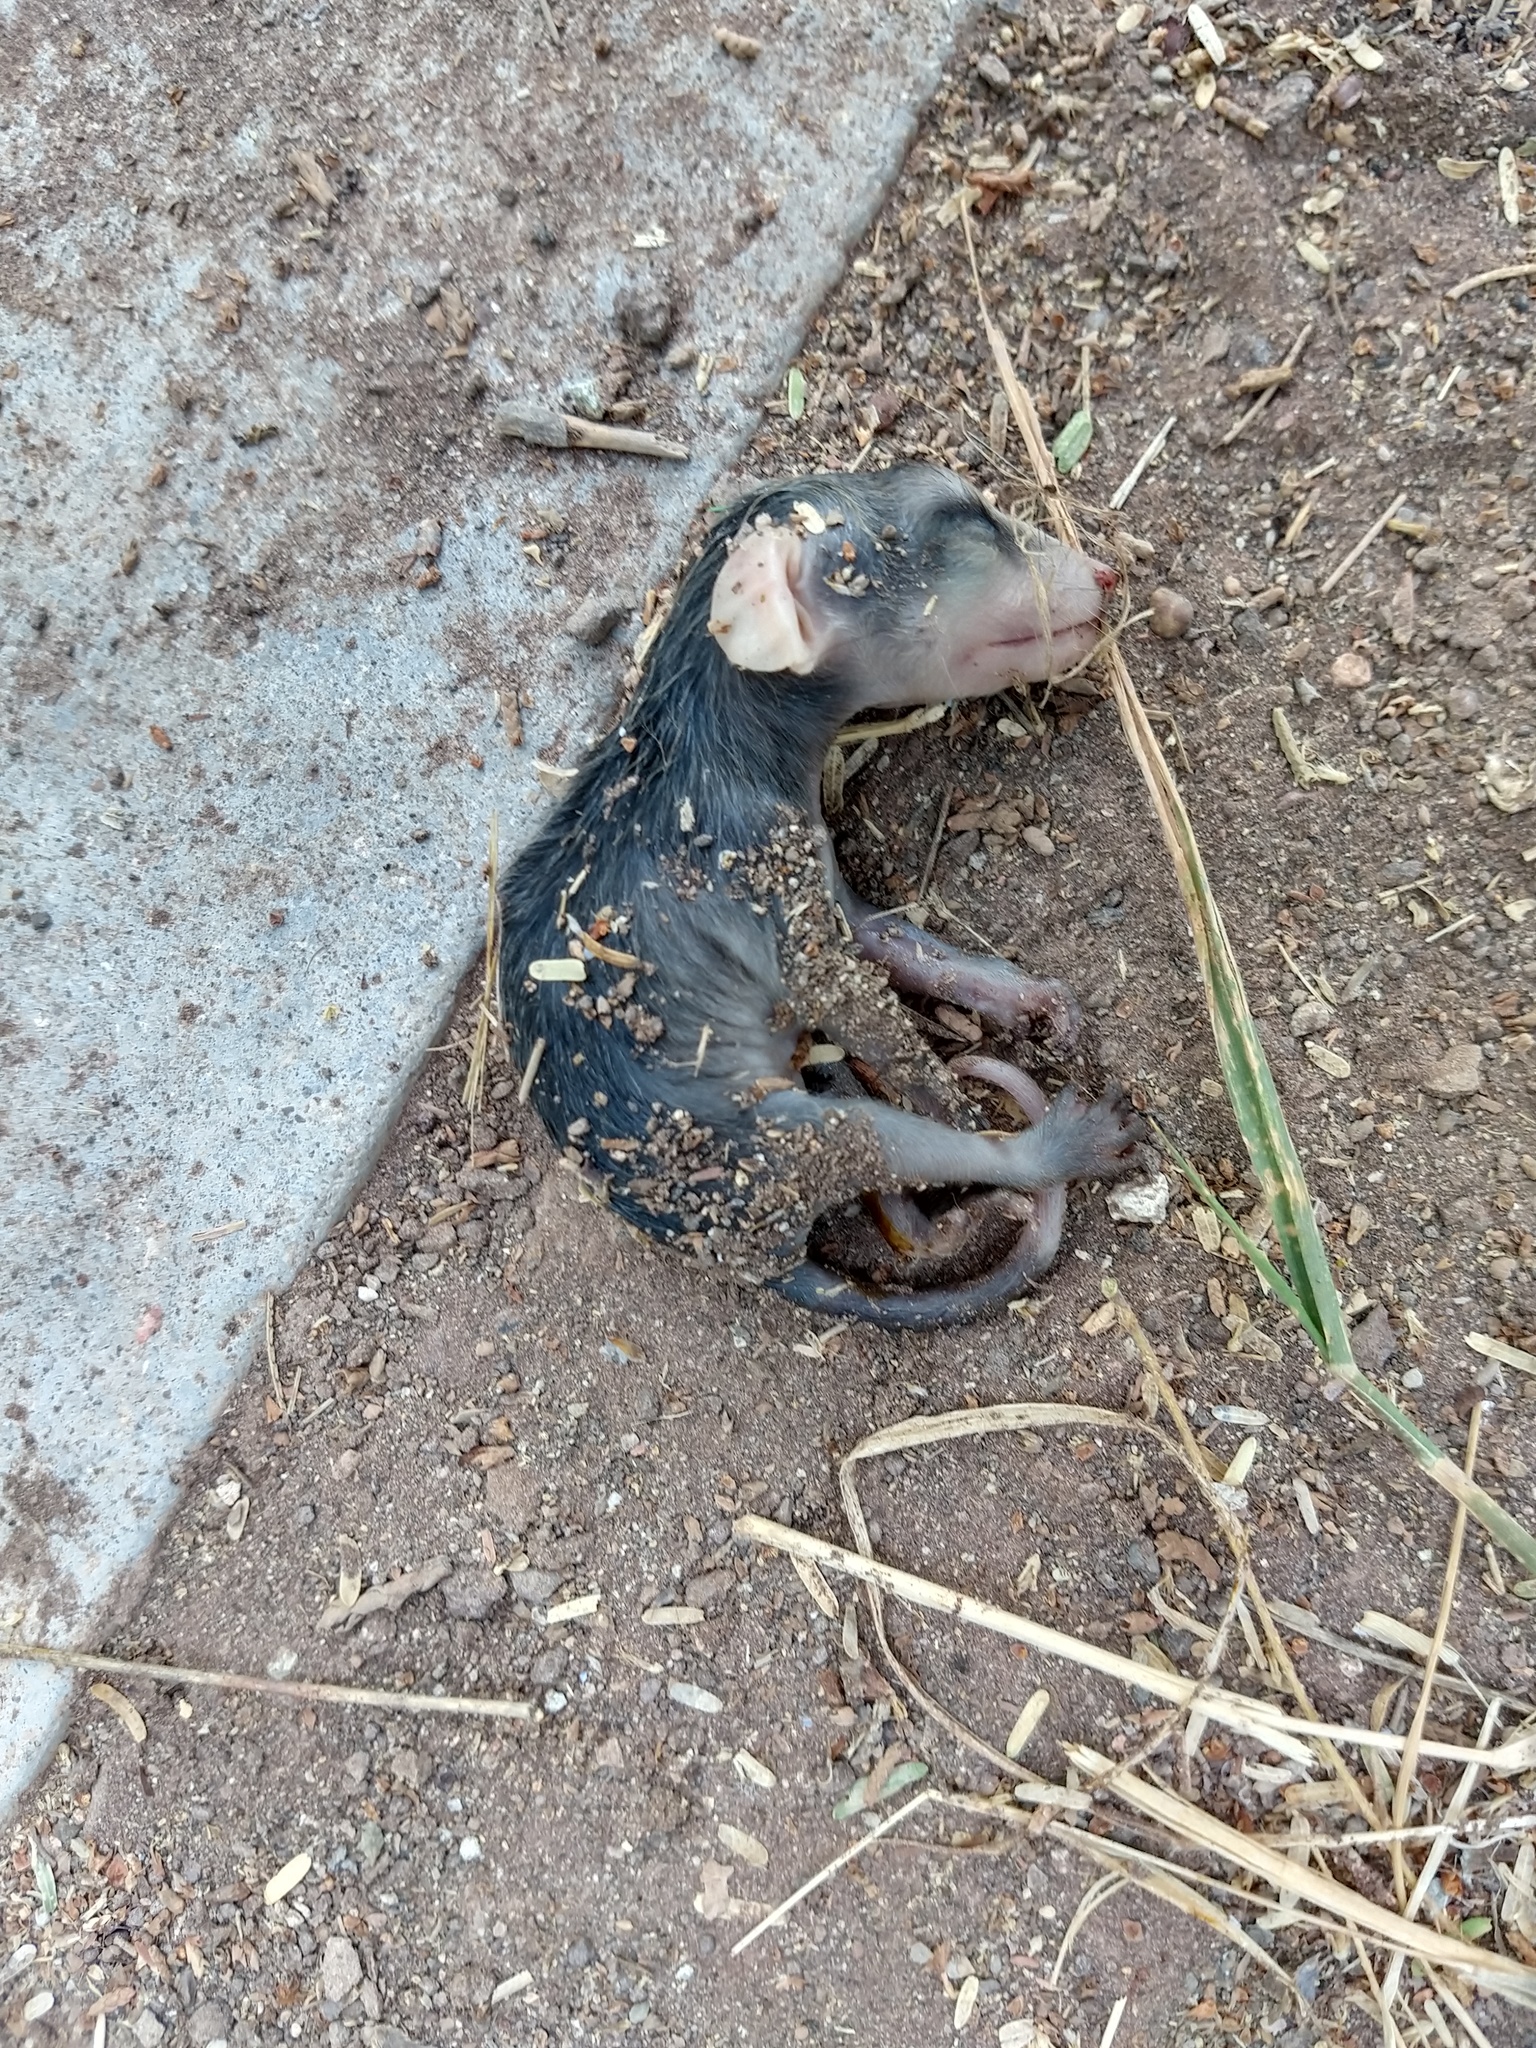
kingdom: Animalia
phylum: Chordata
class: Mammalia
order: Didelphimorphia
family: Didelphidae
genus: Didelphis
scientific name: Didelphis virginiana
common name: Virginia opossum
